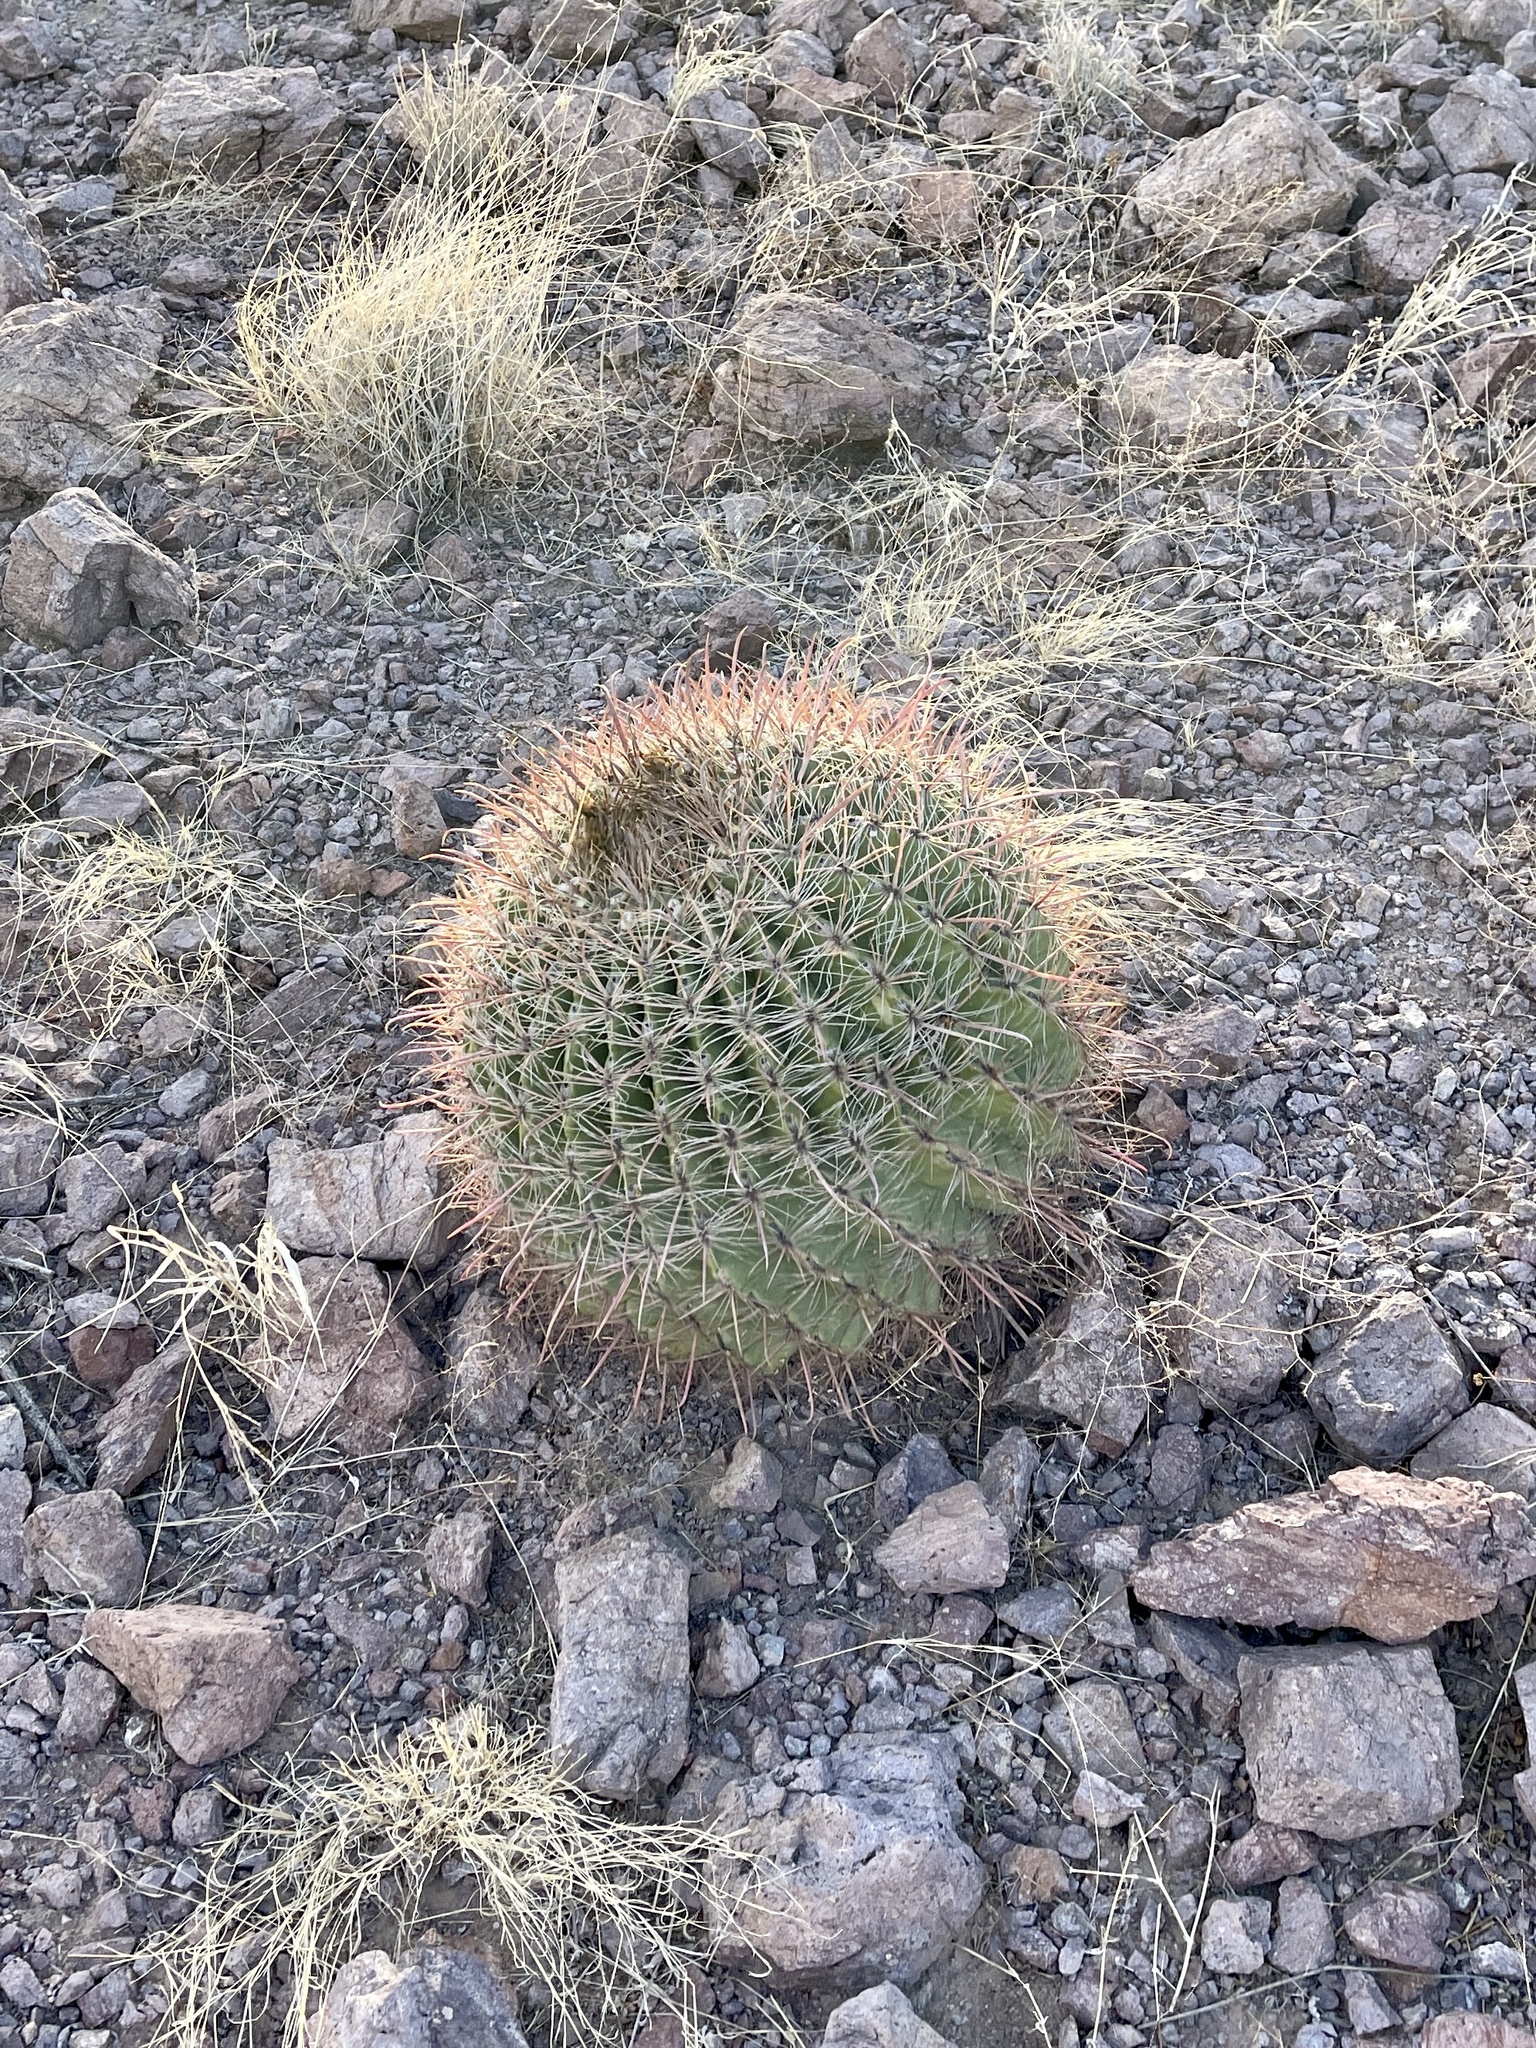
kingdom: Plantae
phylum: Tracheophyta
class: Magnoliopsida
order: Caryophyllales
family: Cactaceae
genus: Ferocactus
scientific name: Ferocactus wislizeni
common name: Candy barrel cactus
